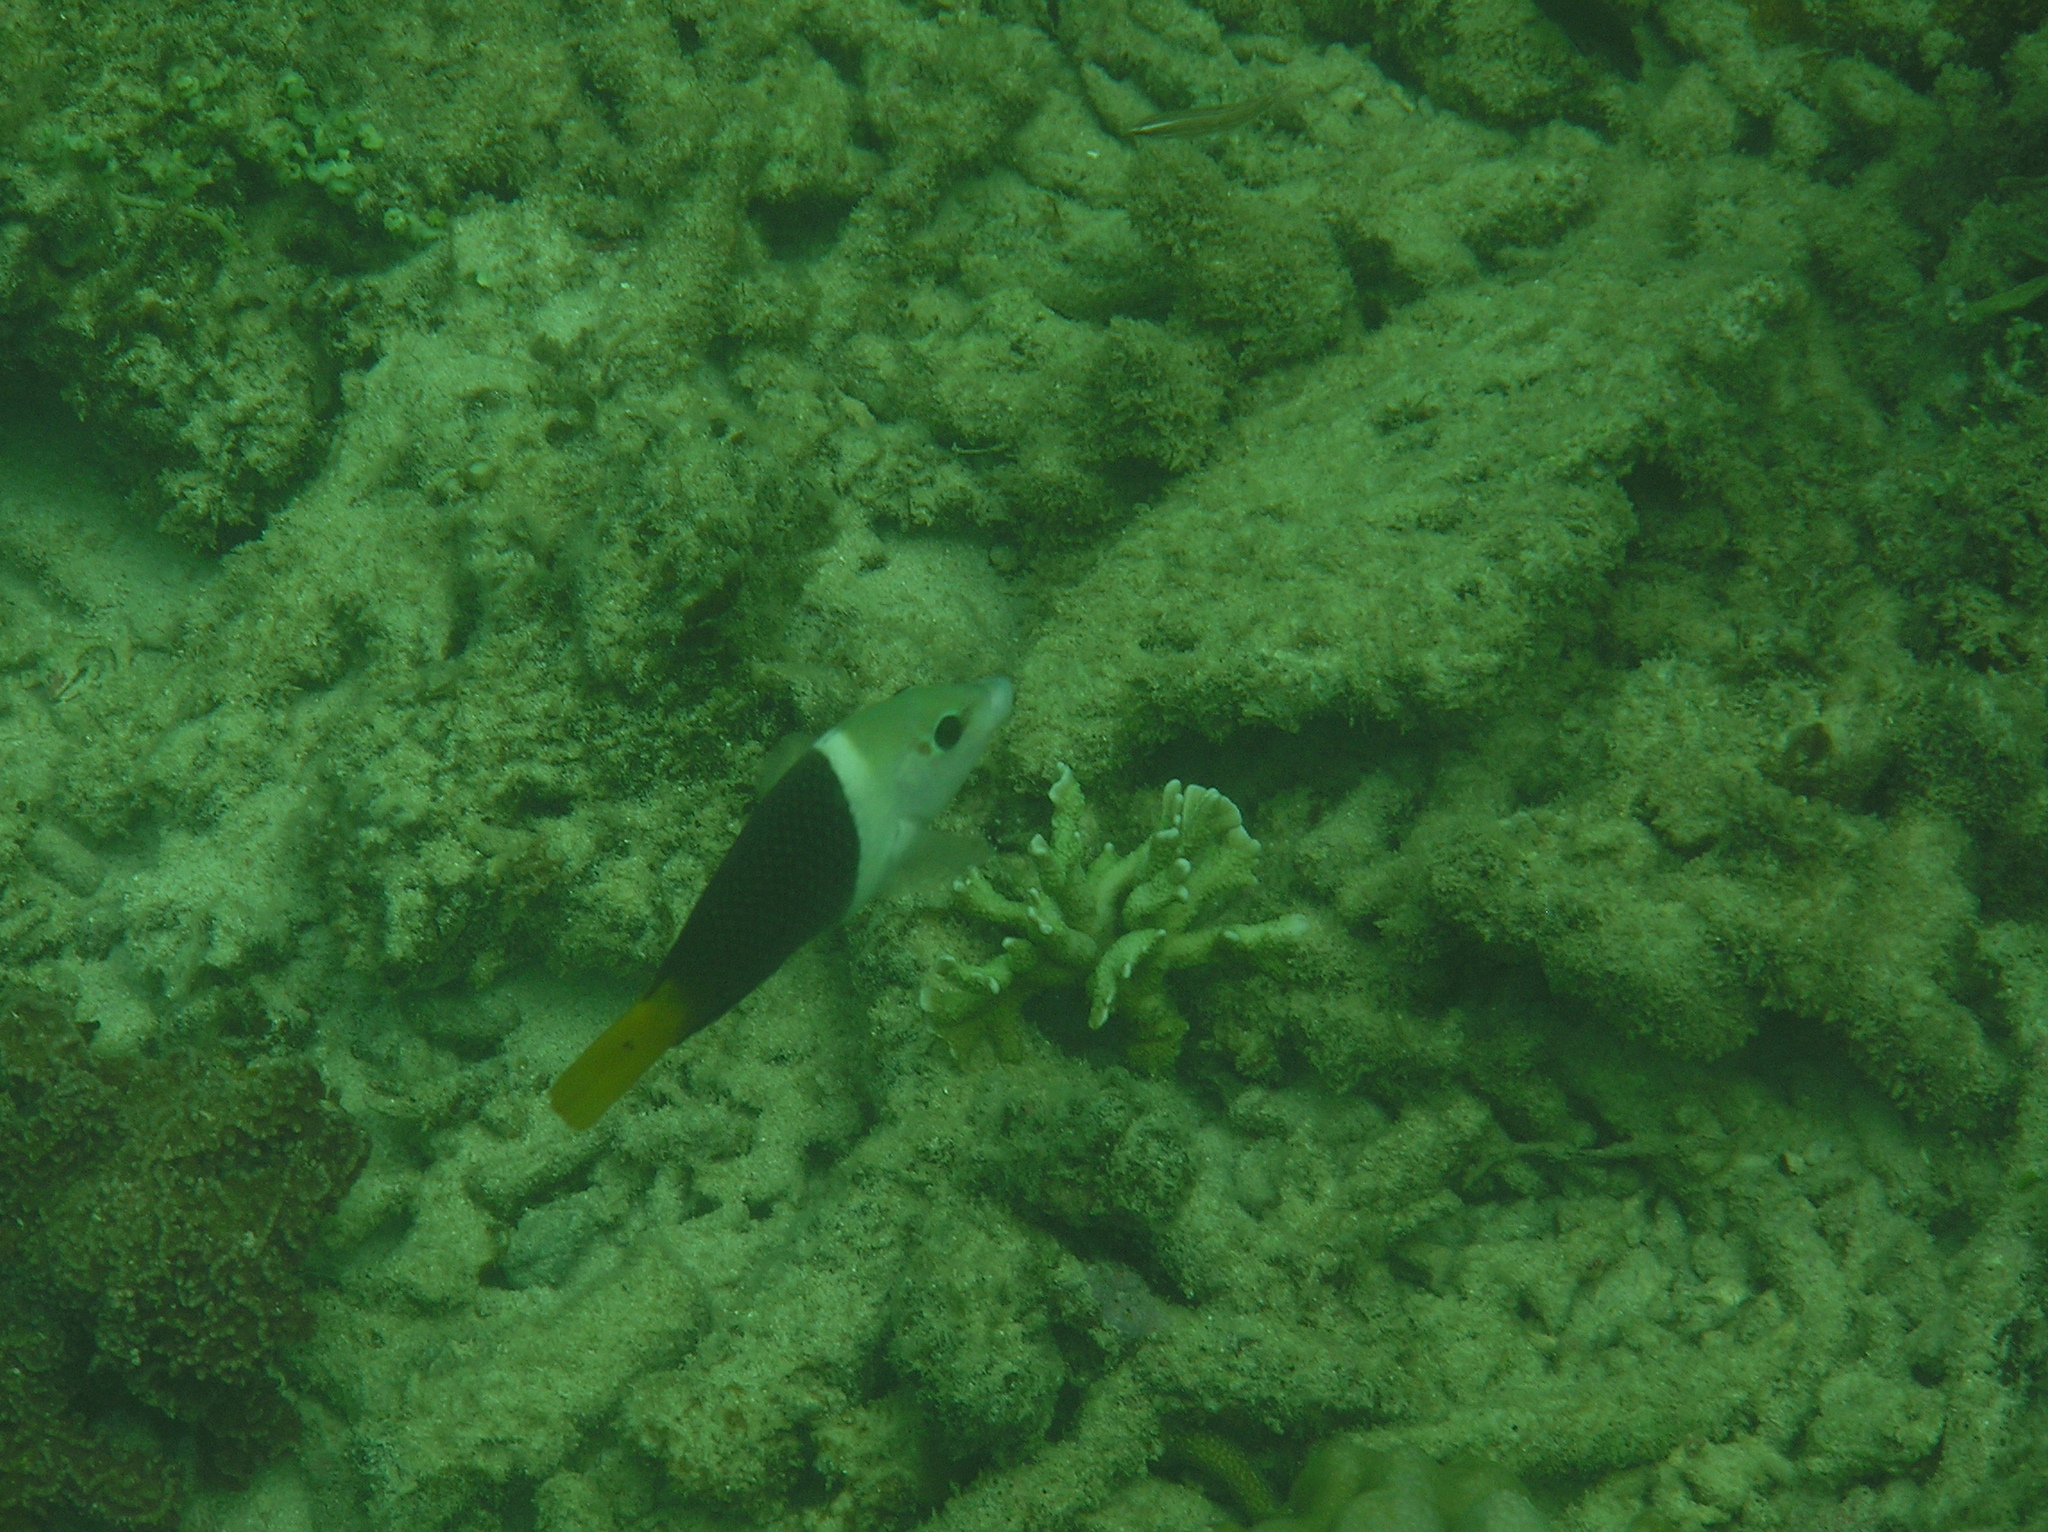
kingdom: Animalia
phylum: Chordata
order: Perciformes
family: Labridae
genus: Hemigymnus
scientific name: Hemigymnus melapterus
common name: Blackeye thicklip
